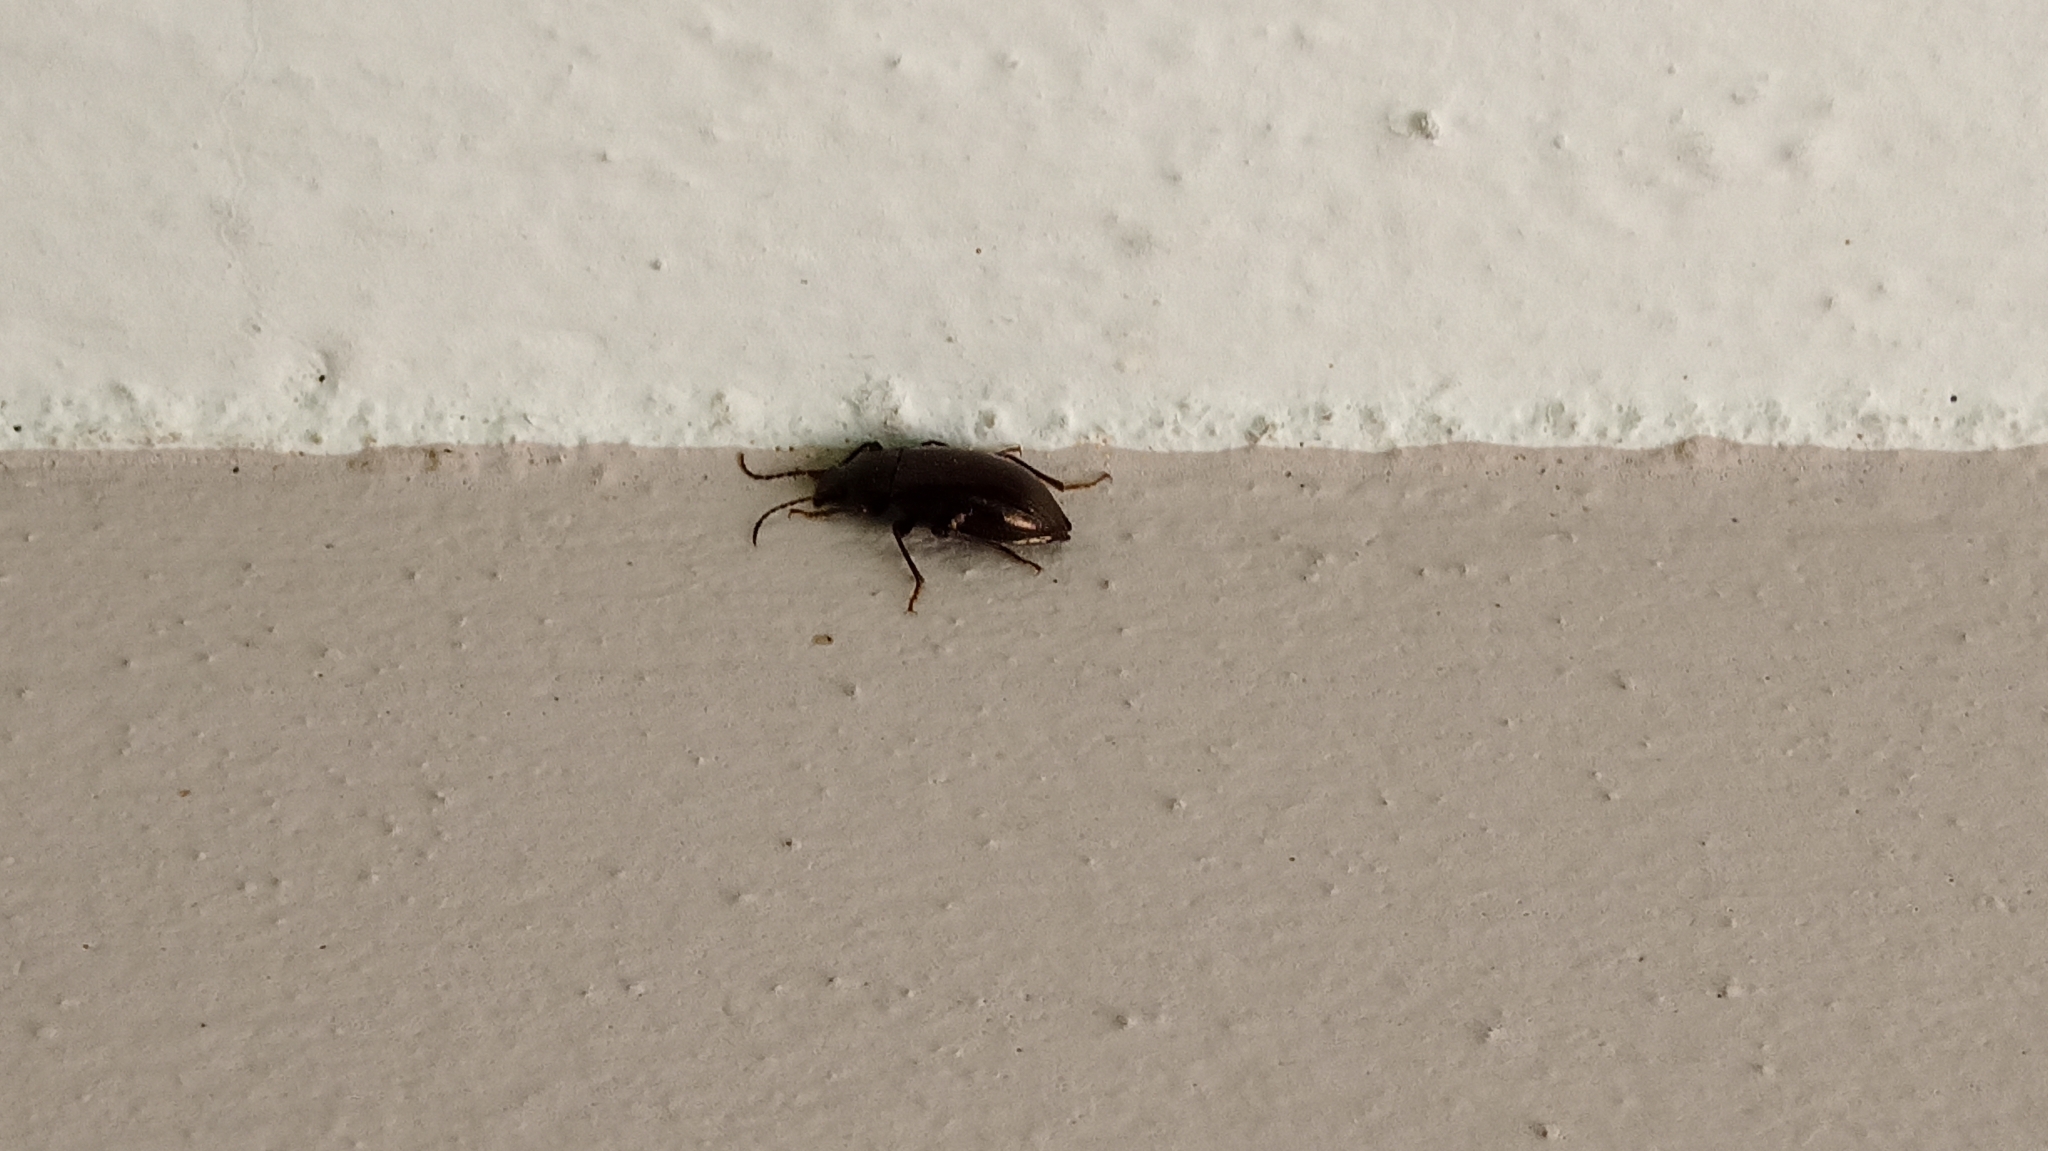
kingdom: Animalia
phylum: Arthropoda
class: Insecta
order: Coleoptera
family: Tenebrionidae
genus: Stenomax
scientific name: Stenomax aeneus
